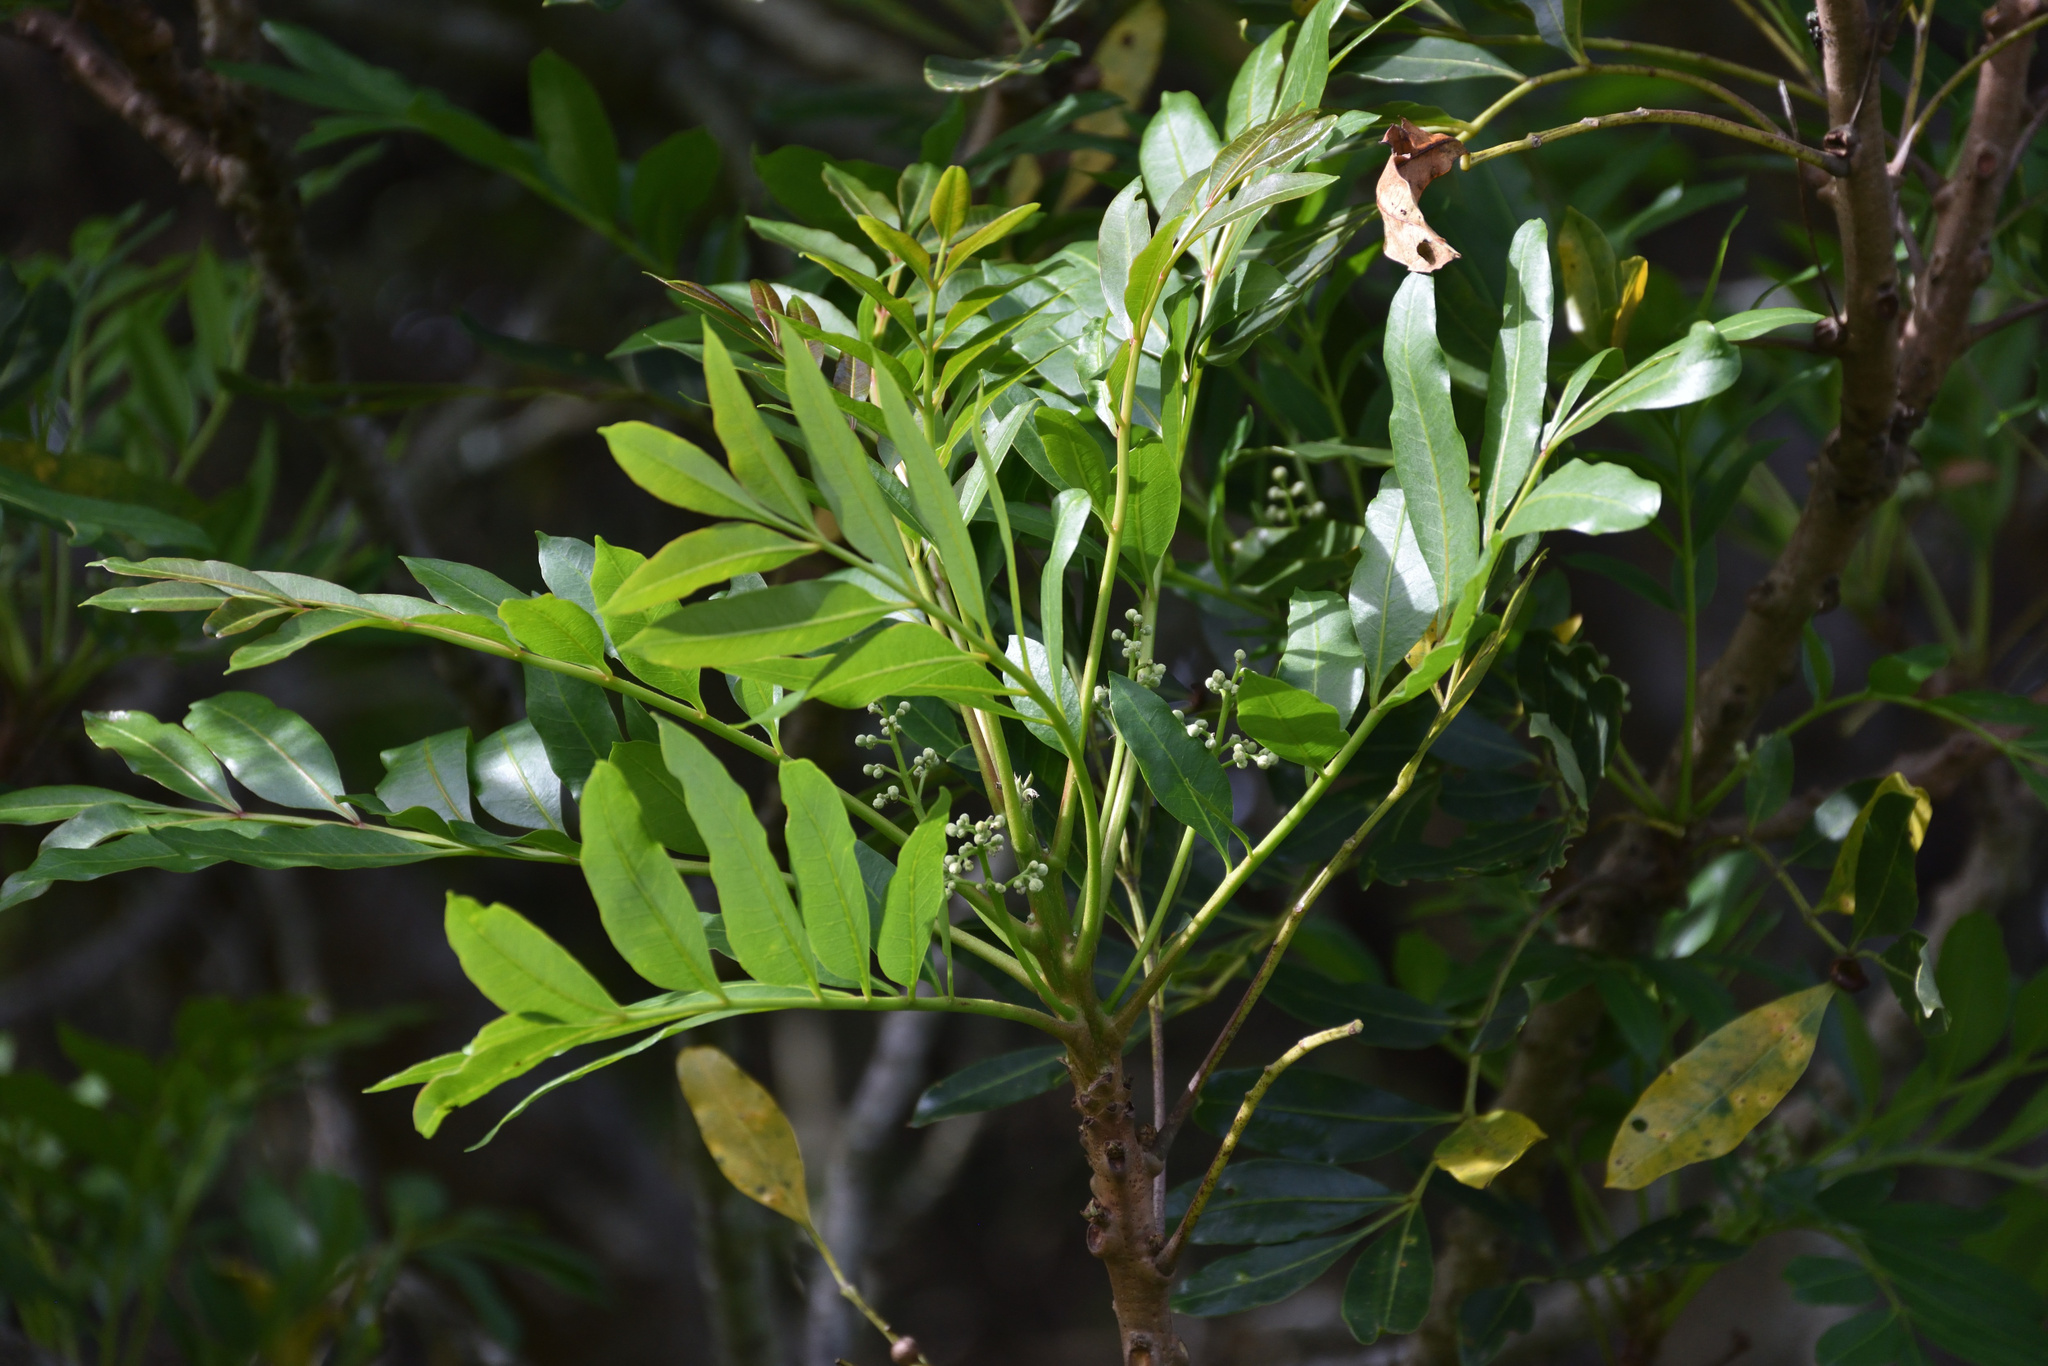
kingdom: Plantae
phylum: Tracheophyta
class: Magnoliopsida
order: Sapindales
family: Meliaceae
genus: Ekebergia
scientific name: Ekebergia capensis
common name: Cape-ash
